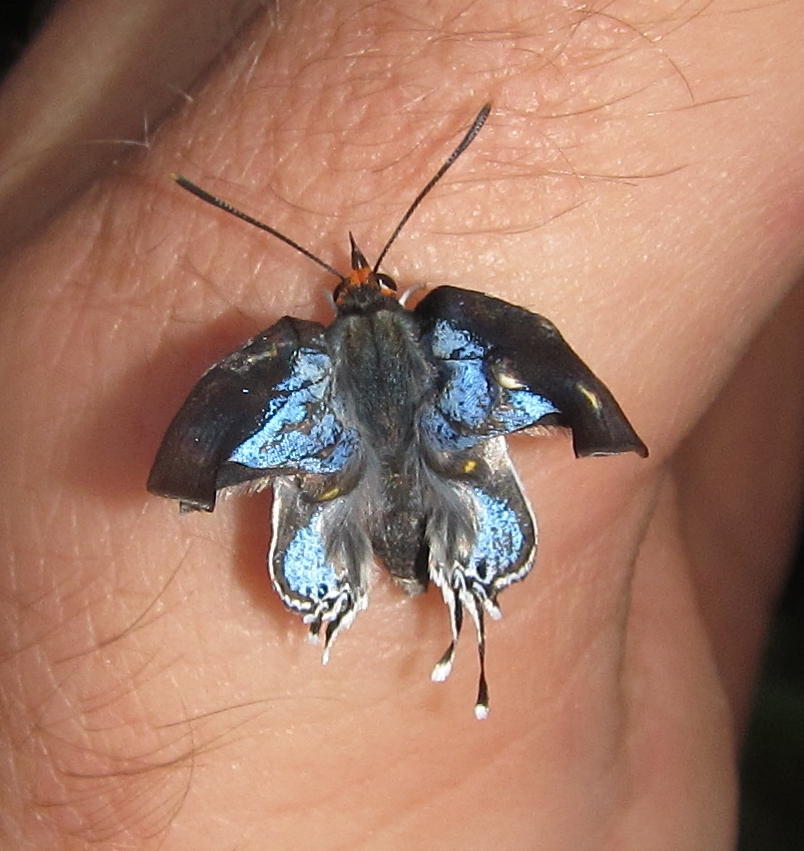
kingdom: Animalia
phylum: Arthropoda
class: Insecta
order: Lepidoptera
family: Lycaenidae
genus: Epamera
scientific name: Epamera diametra
